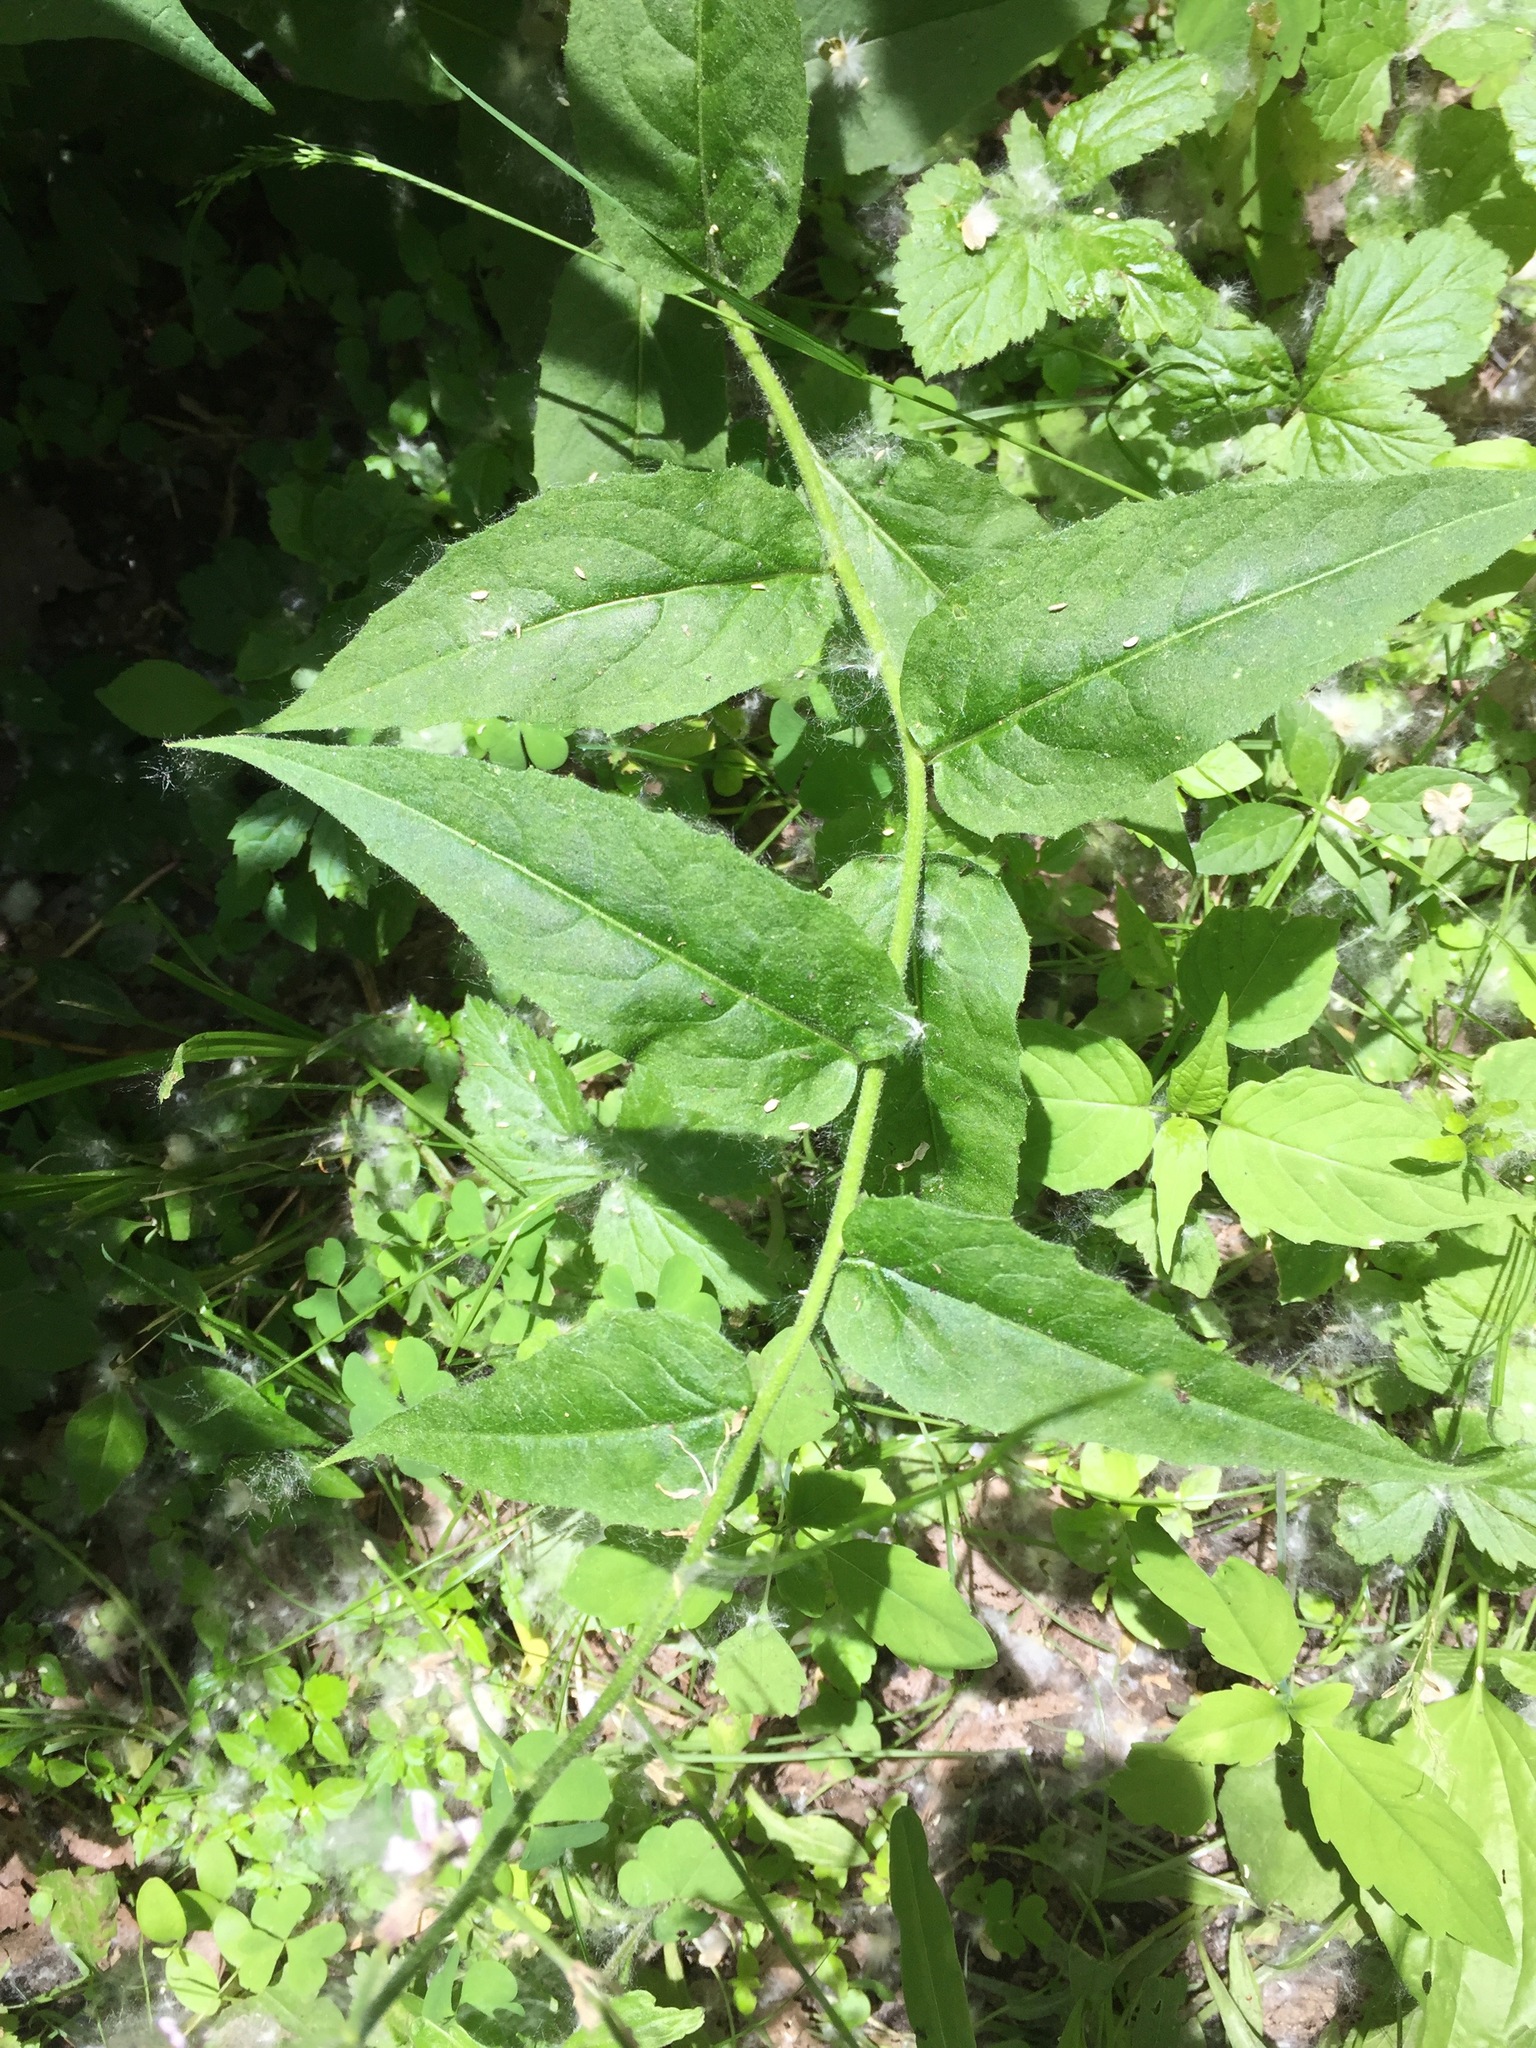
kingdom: Plantae
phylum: Tracheophyta
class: Magnoliopsida
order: Brassicales
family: Brassicaceae
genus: Hesperis
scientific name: Hesperis matronalis
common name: Dame's-violet
